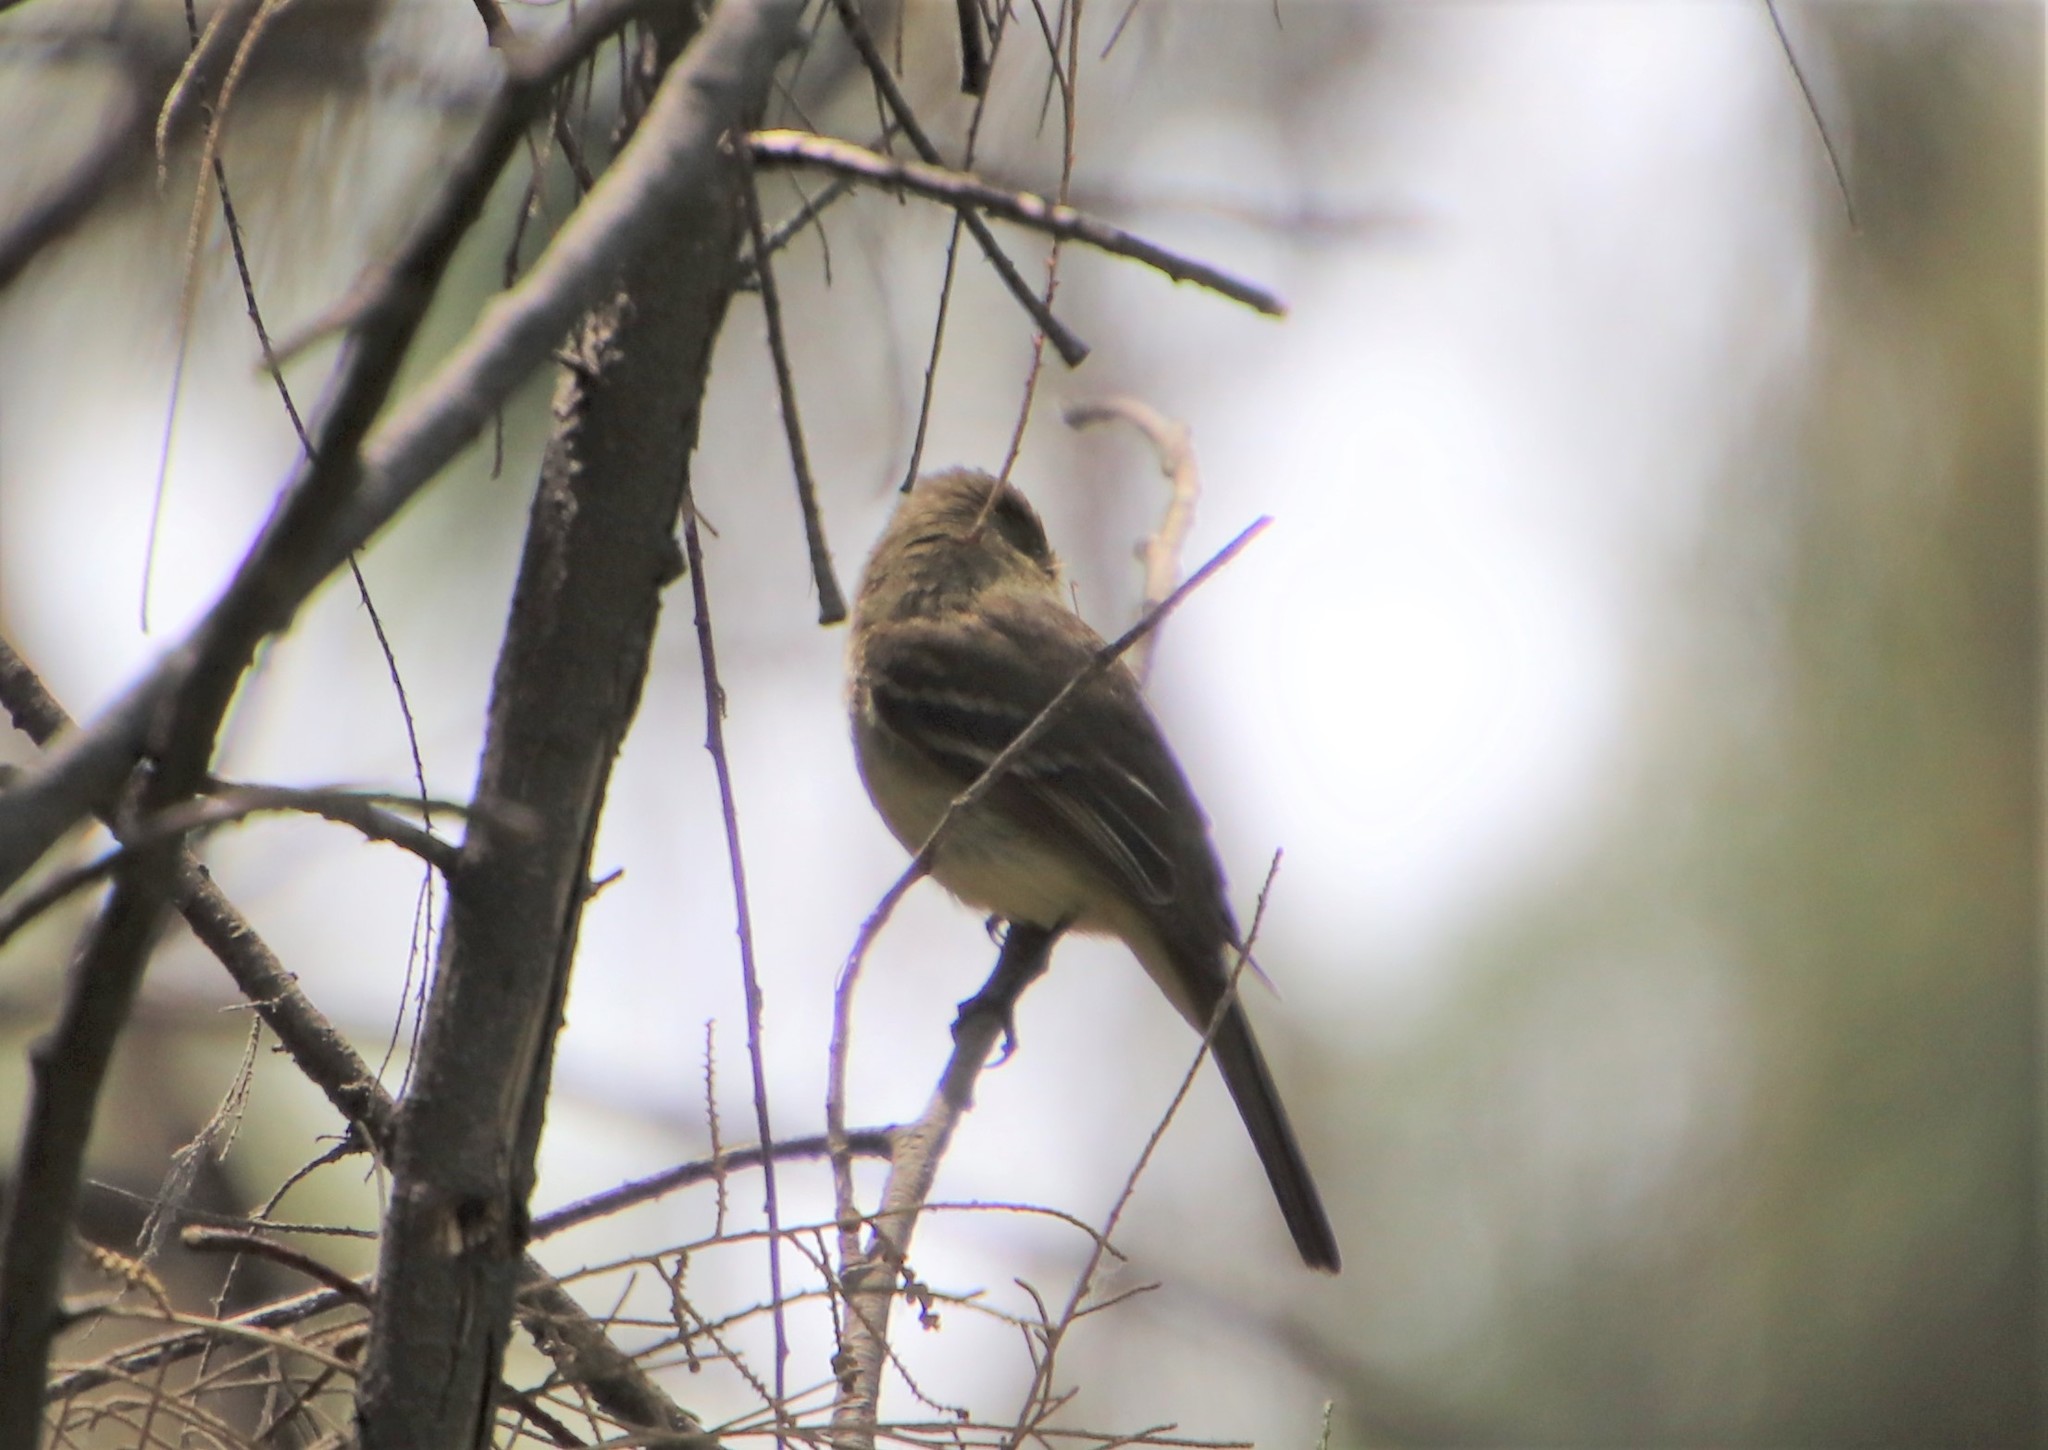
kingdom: Animalia
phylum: Chordata
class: Aves
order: Passeriformes
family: Tyrannidae
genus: Empidonax
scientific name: Empidonax difficilis
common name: Pacific-slope flycatcher
